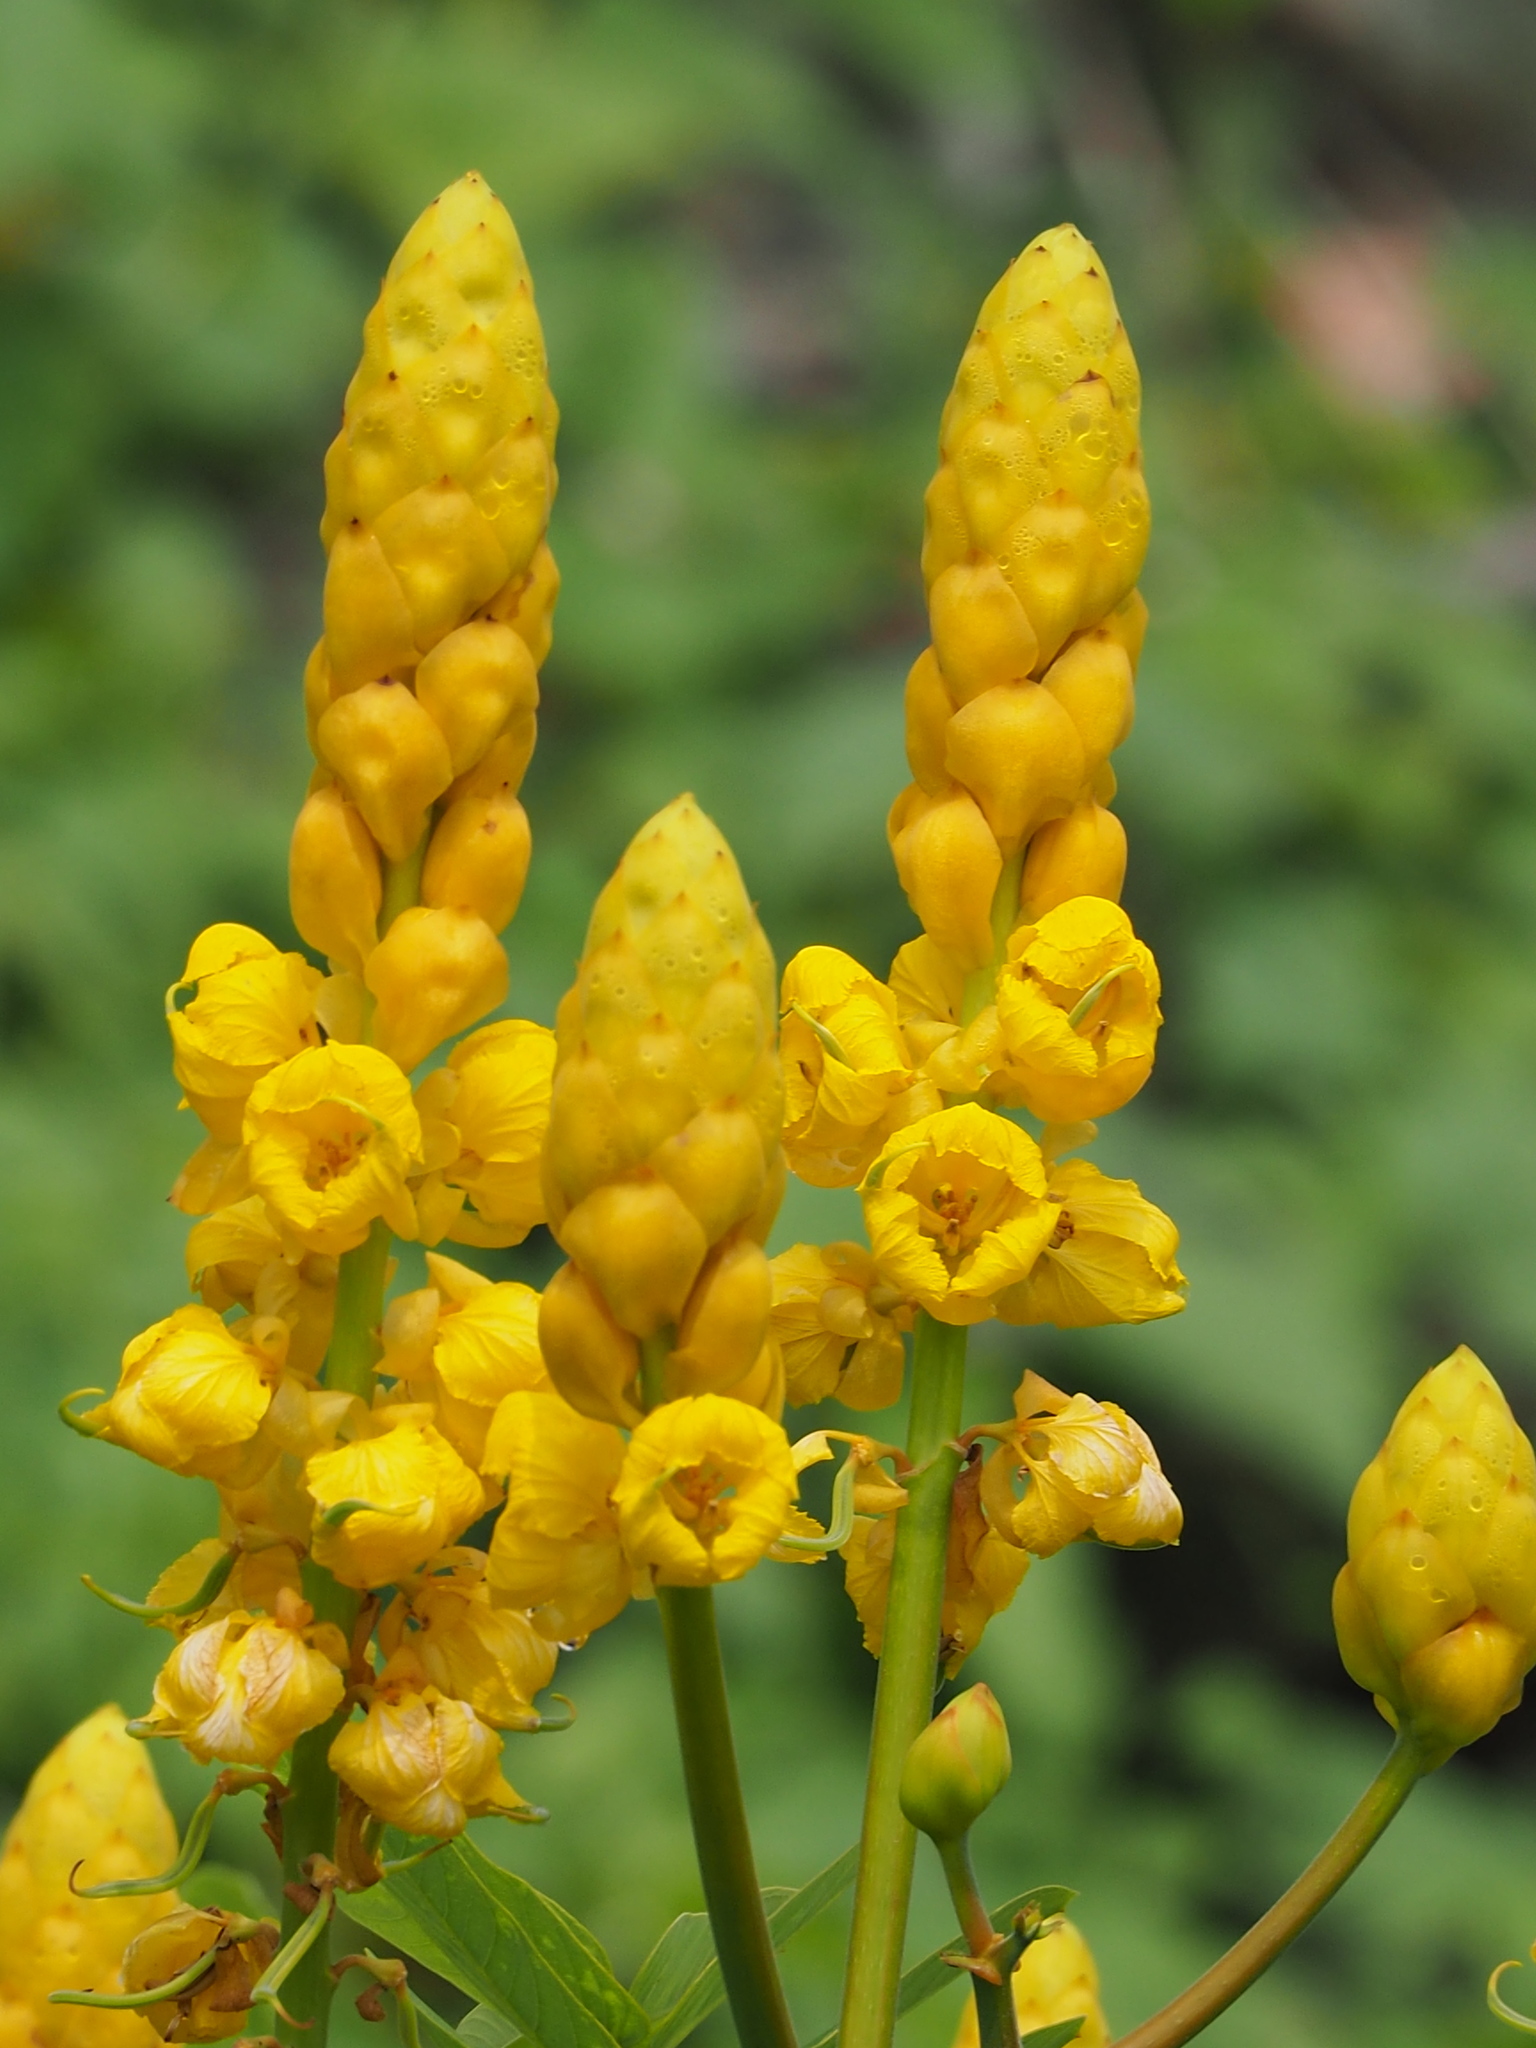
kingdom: Plantae
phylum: Tracheophyta
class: Magnoliopsida
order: Fabales
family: Fabaceae
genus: Senna
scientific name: Senna alata
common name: Emperor's candlesticks
